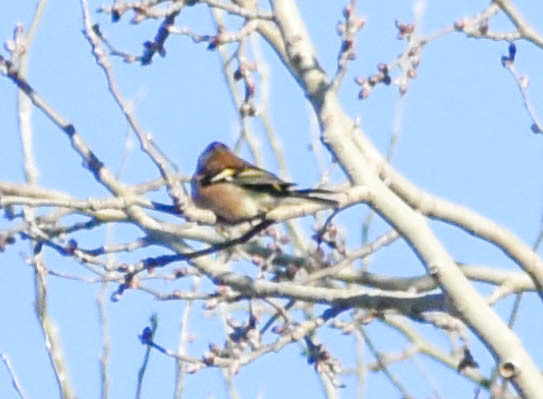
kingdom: Animalia
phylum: Chordata
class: Aves
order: Passeriformes
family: Fringillidae
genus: Fringilla
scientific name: Fringilla coelebs
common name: Common chaffinch
